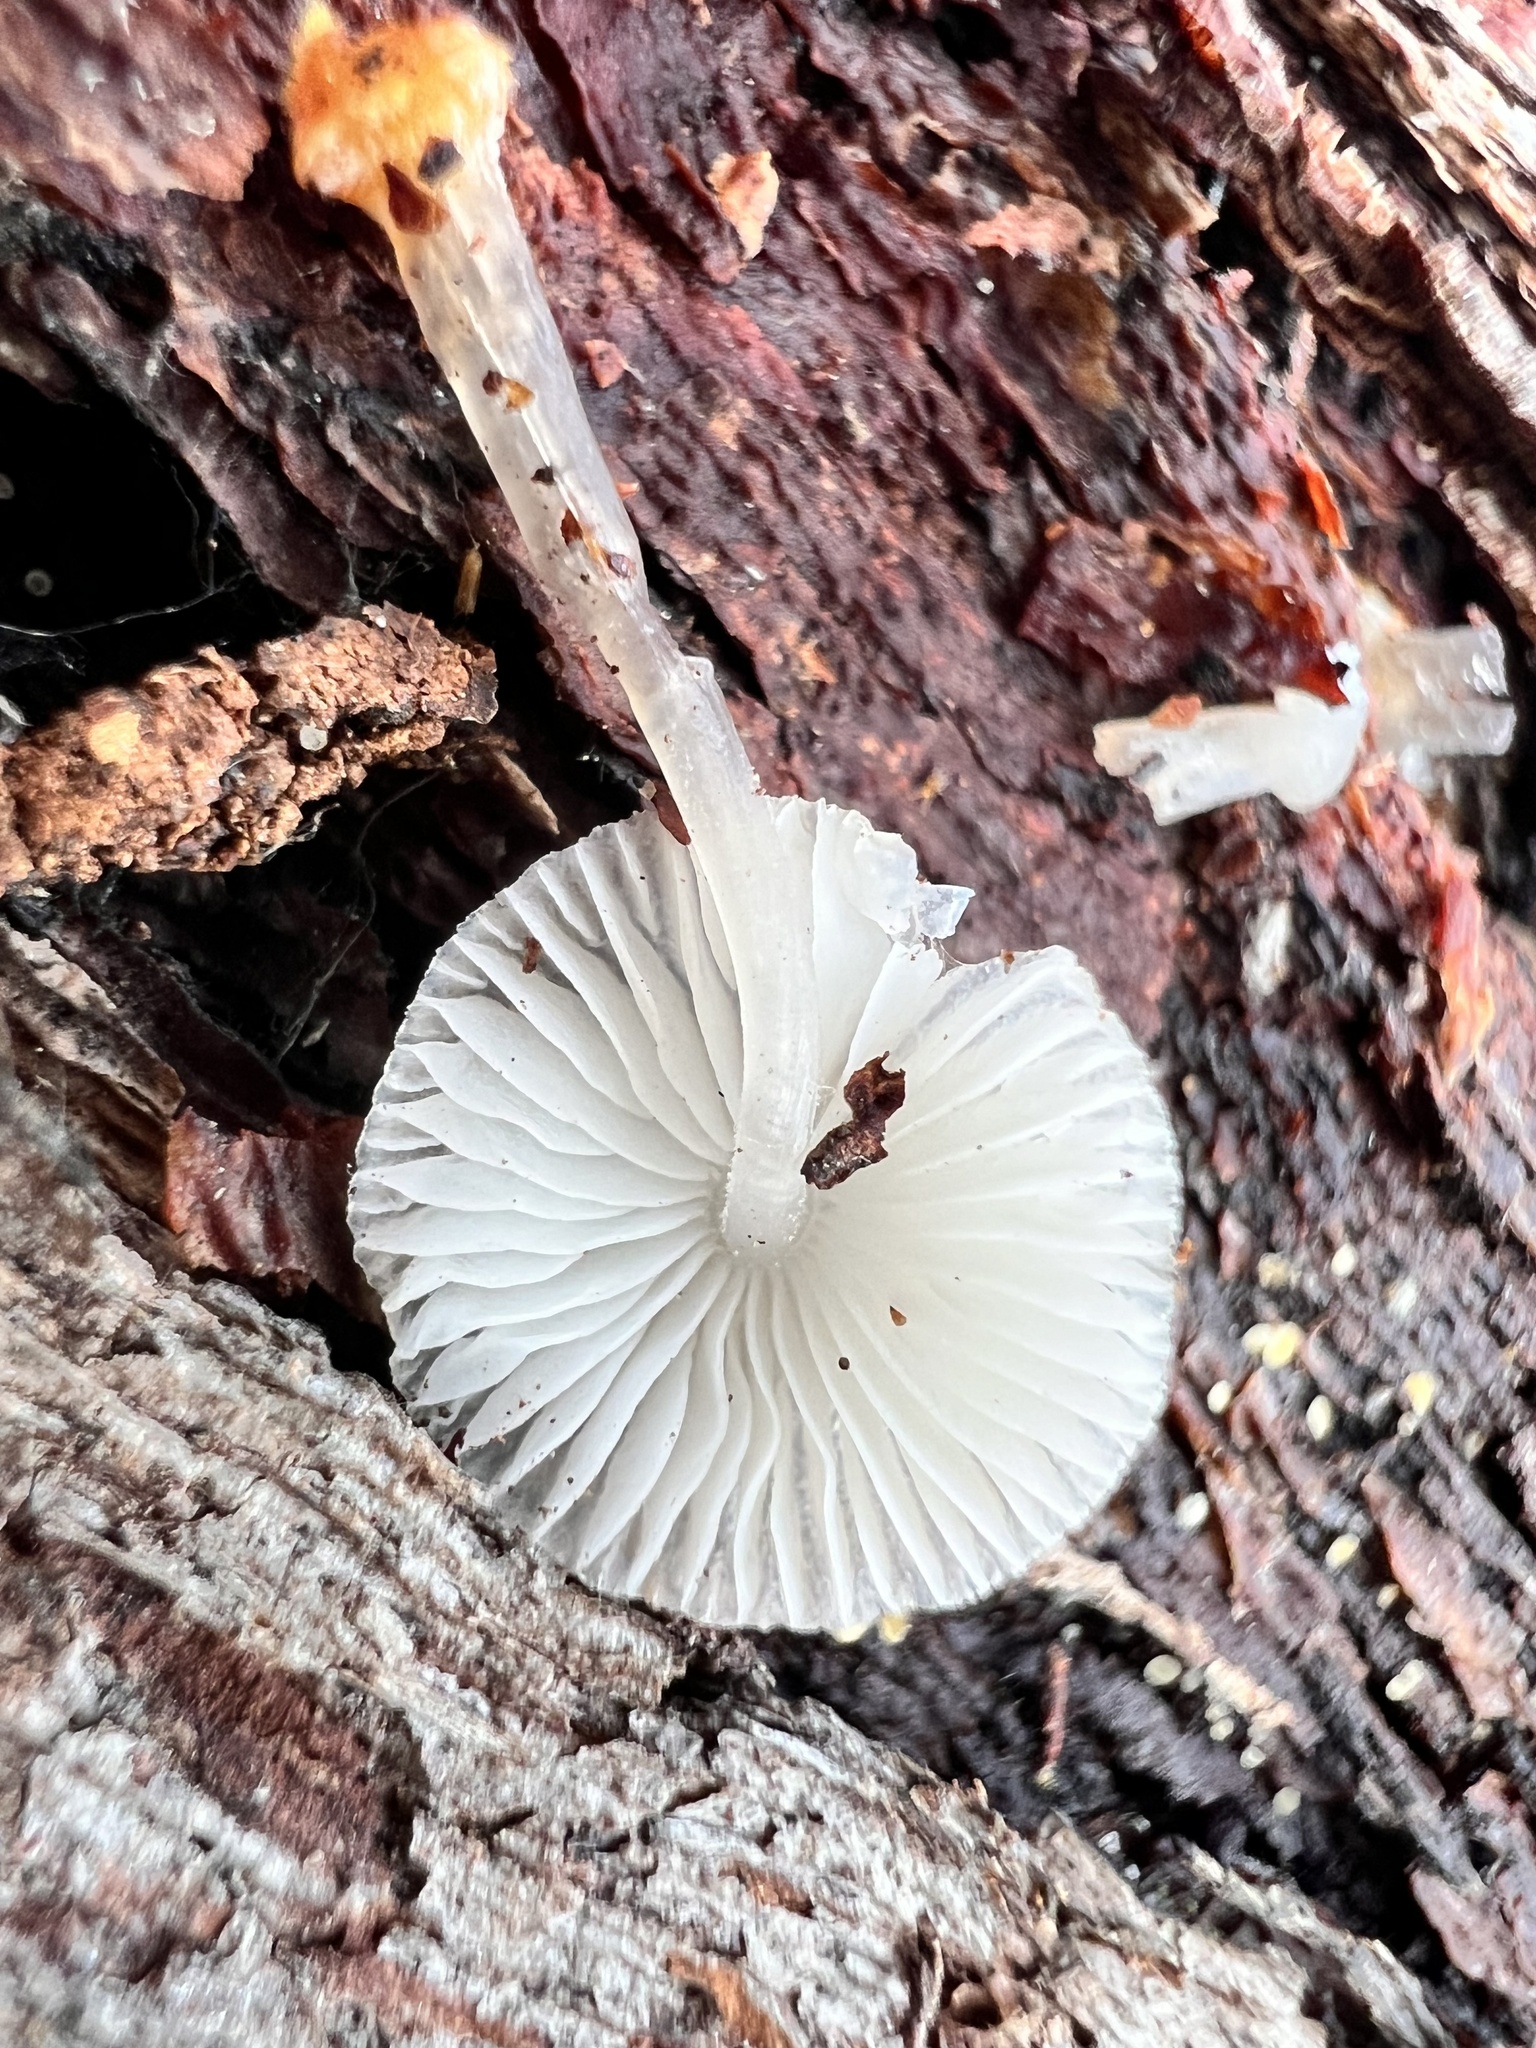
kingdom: Fungi
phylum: Basidiomycota
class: Agaricomycetes
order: Agaricales
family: Mycenaceae
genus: Mycena
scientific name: Mycena carmeliana
